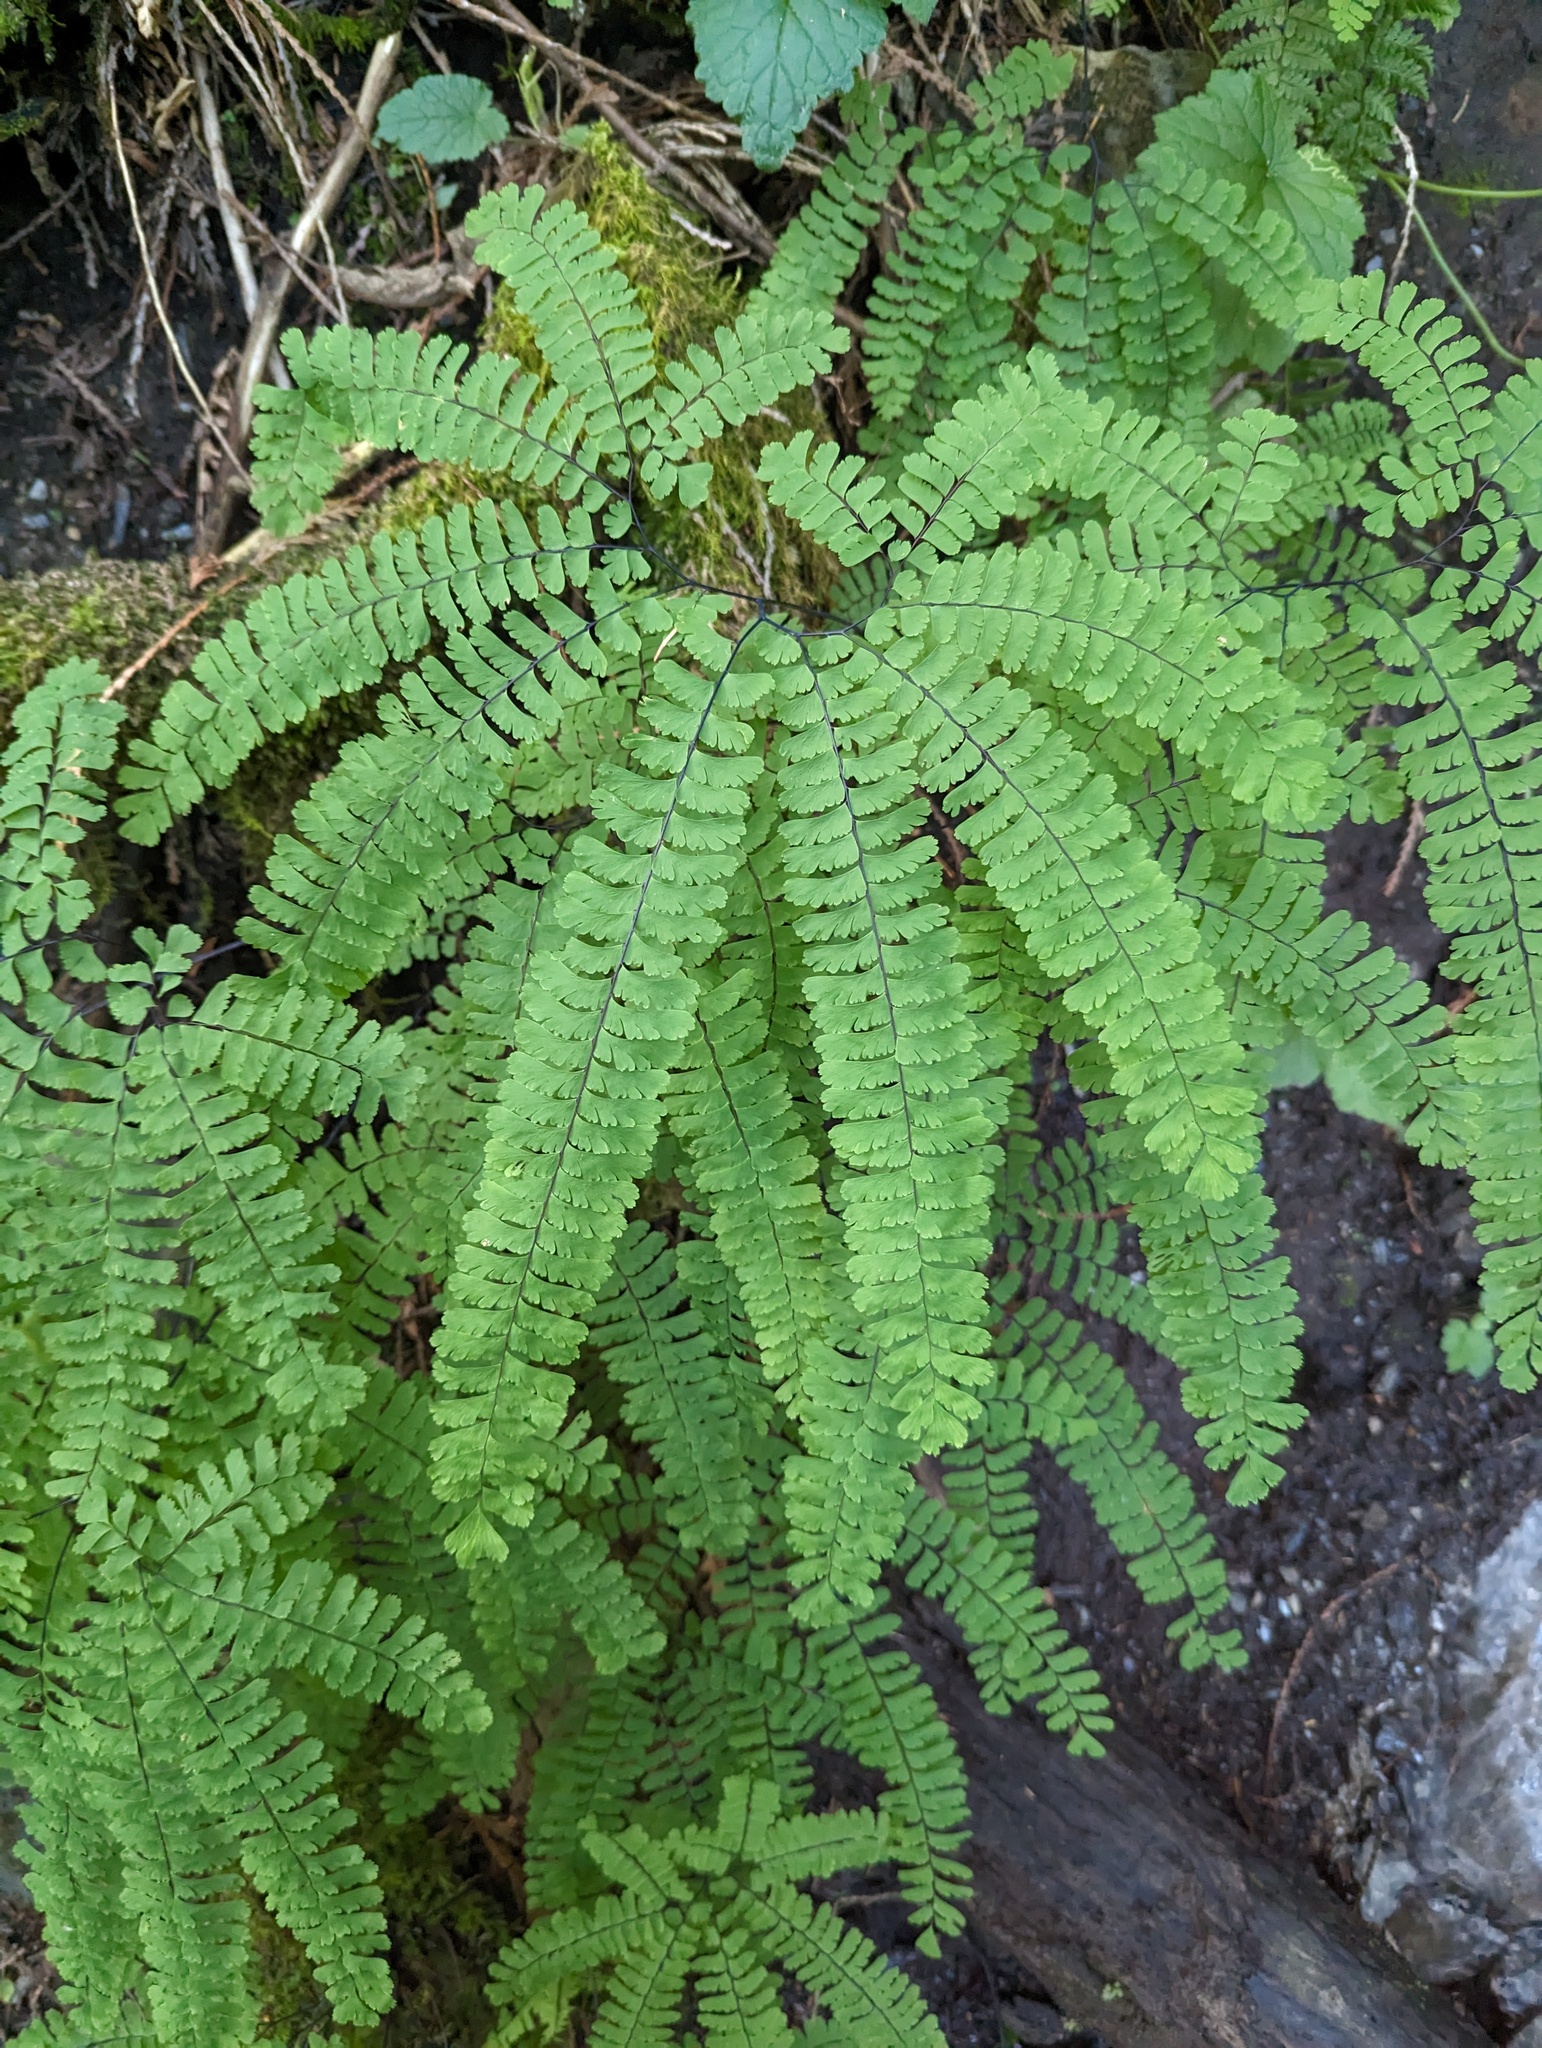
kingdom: Plantae
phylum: Tracheophyta
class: Polypodiopsida
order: Polypodiales
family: Pteridaceae
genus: Adiantum
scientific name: Adiantum aleuticum
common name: Aleutian maidenhair fern
